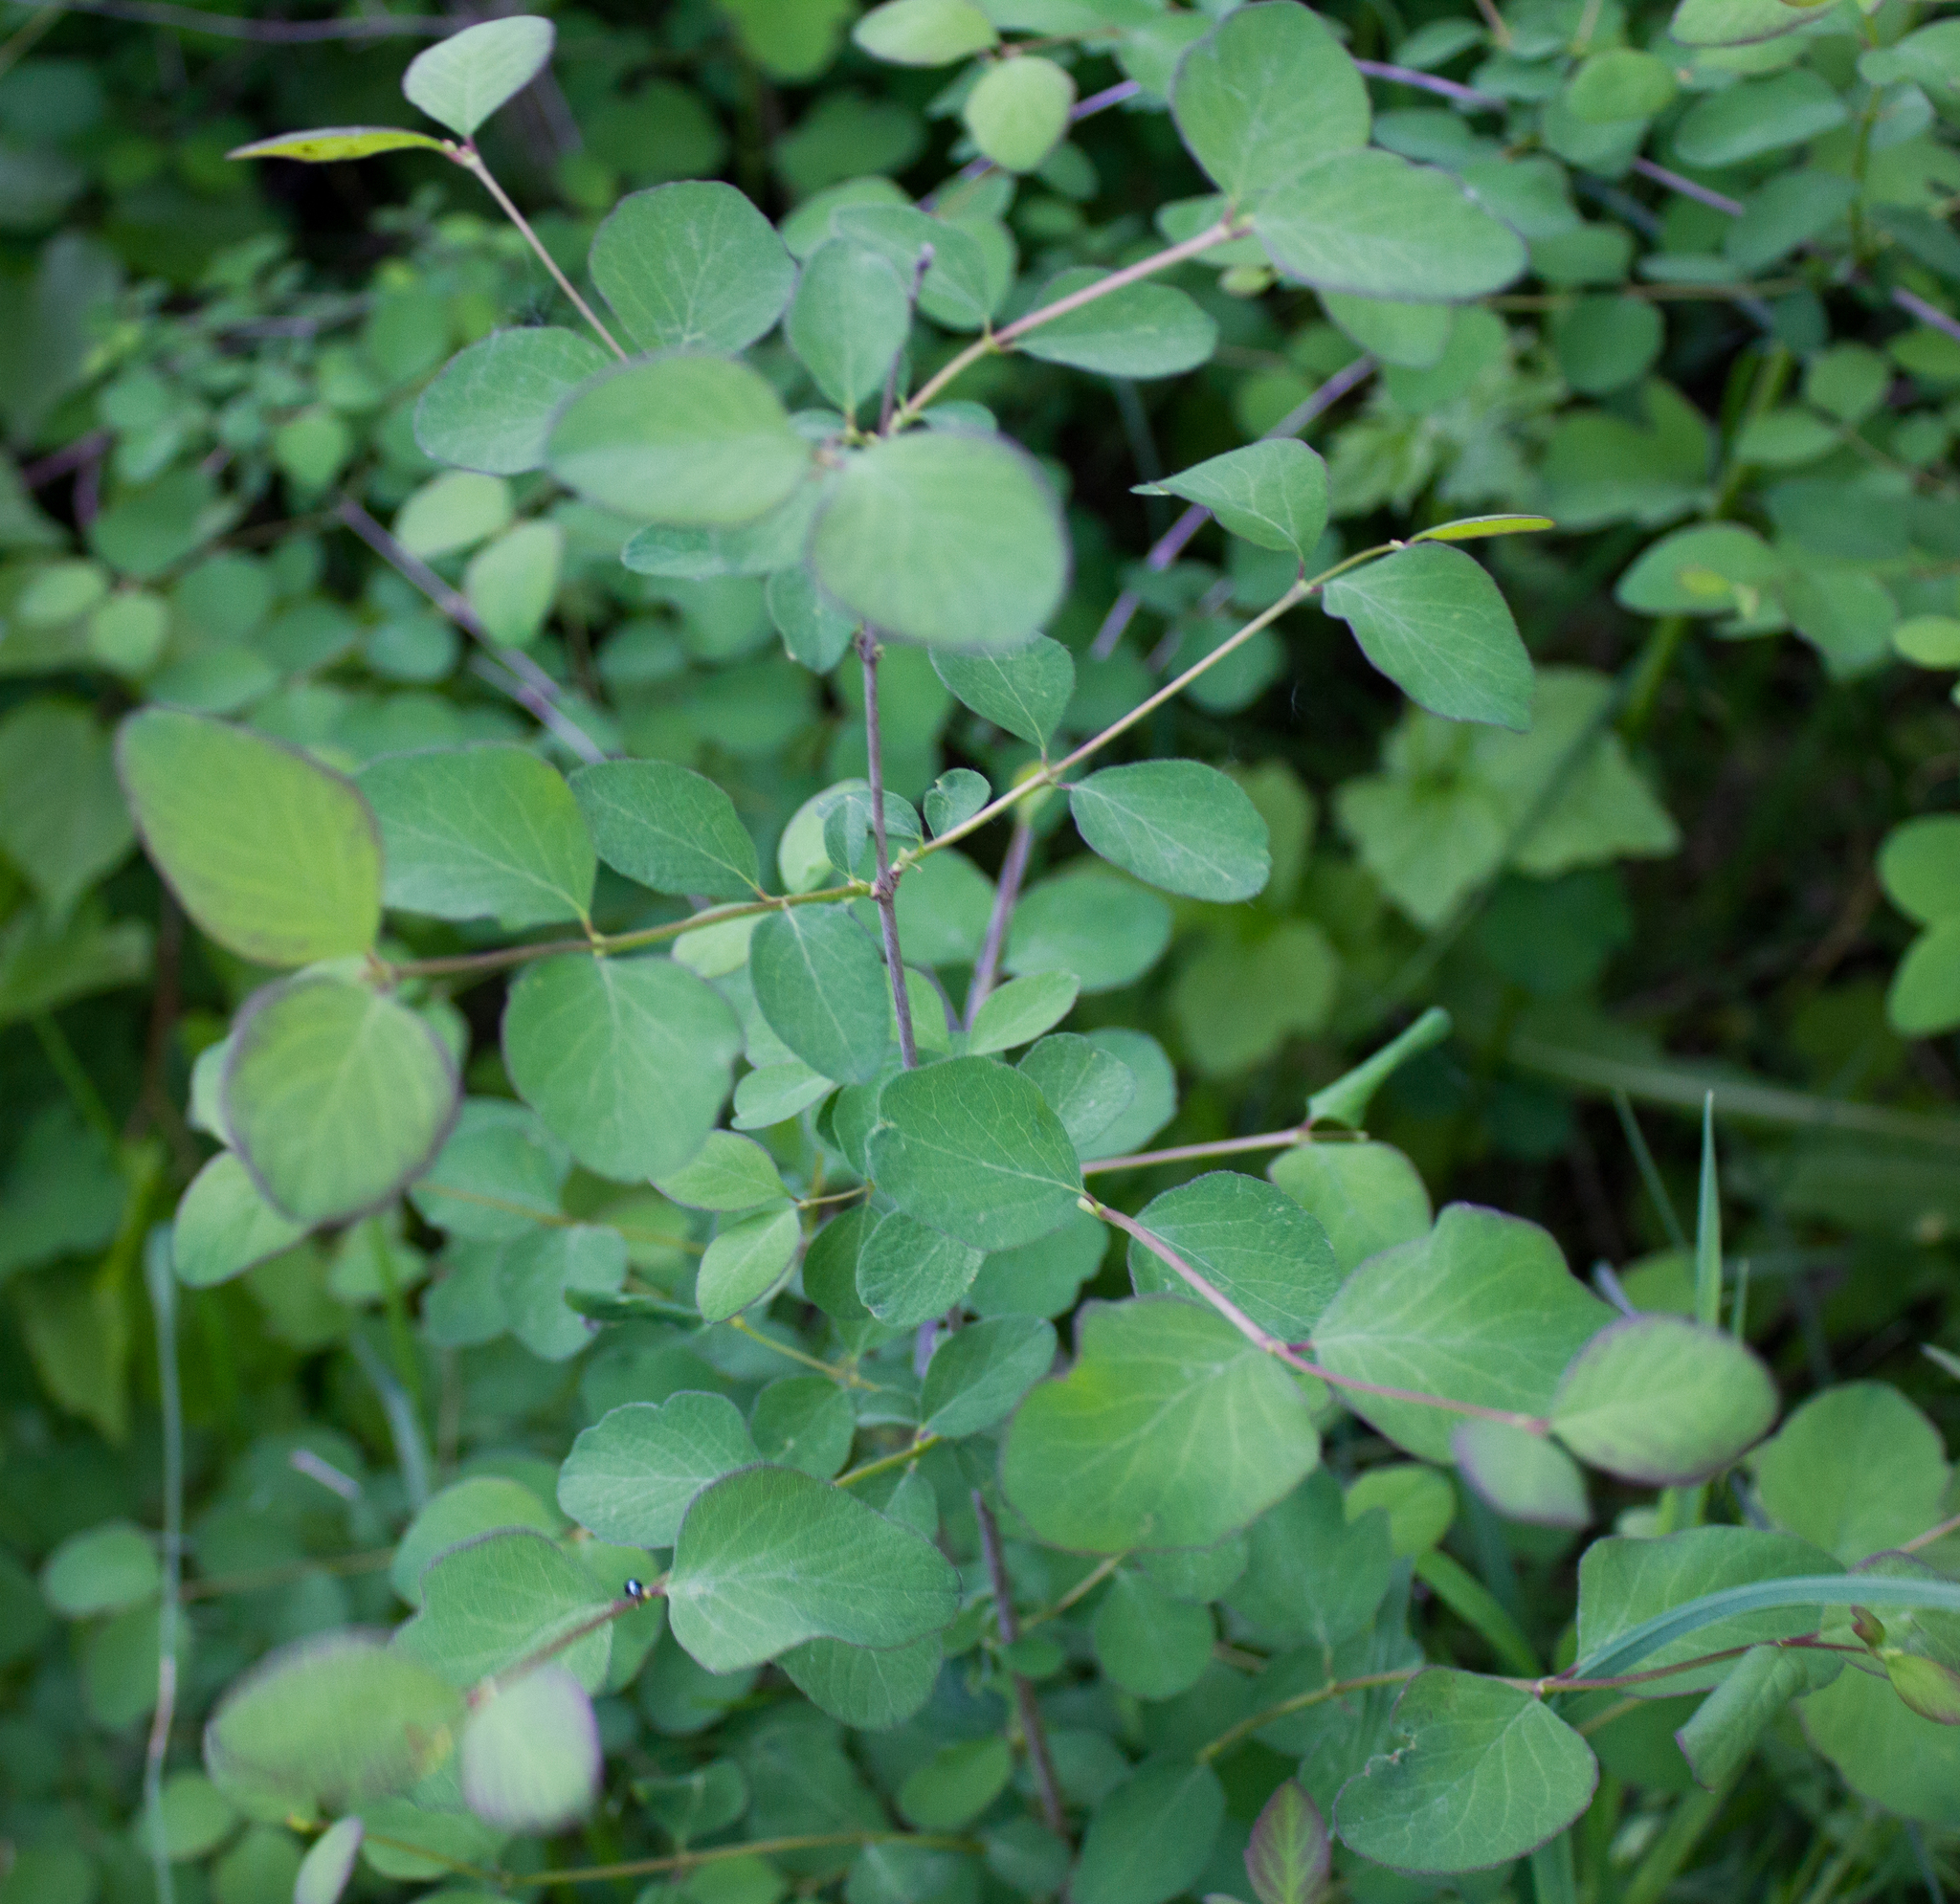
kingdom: Plantae
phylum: Tracheophyta
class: Magnoliopsida
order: Dipsacales
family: Caprifoliaceae
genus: Symphoricarpos
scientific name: Symphoricarpos albus
